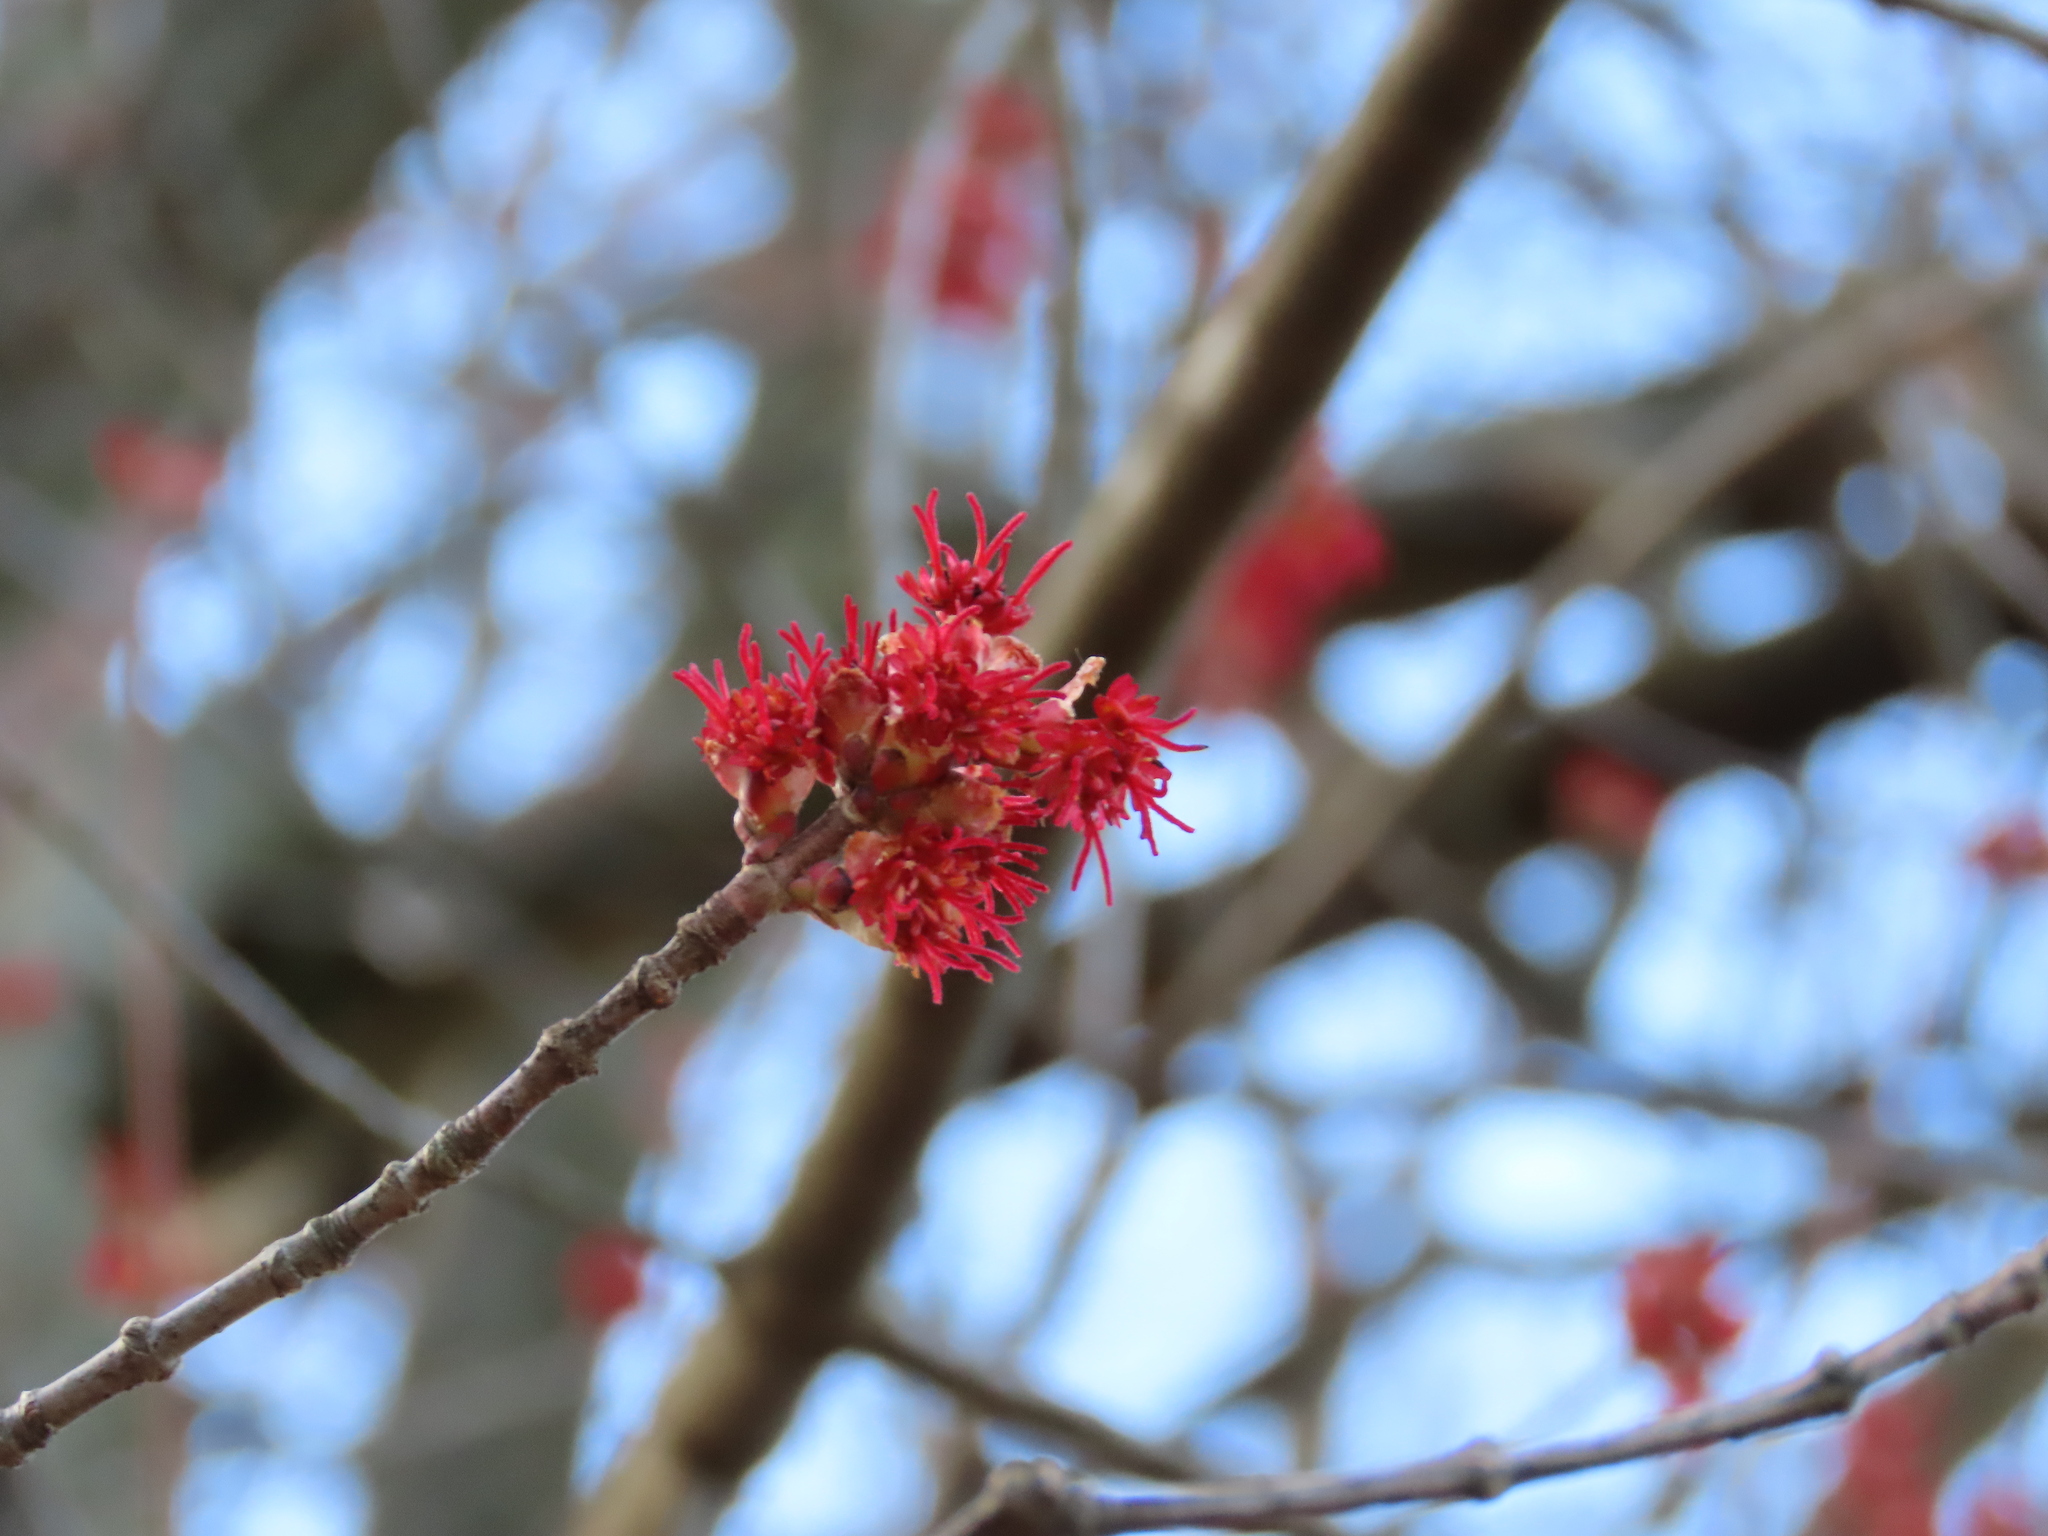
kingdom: Plantae
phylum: Tracheophyta
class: Magnoliopsida
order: Sapindales
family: Sapindaceae
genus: Acer
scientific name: Acer rubrum
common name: Red maple
